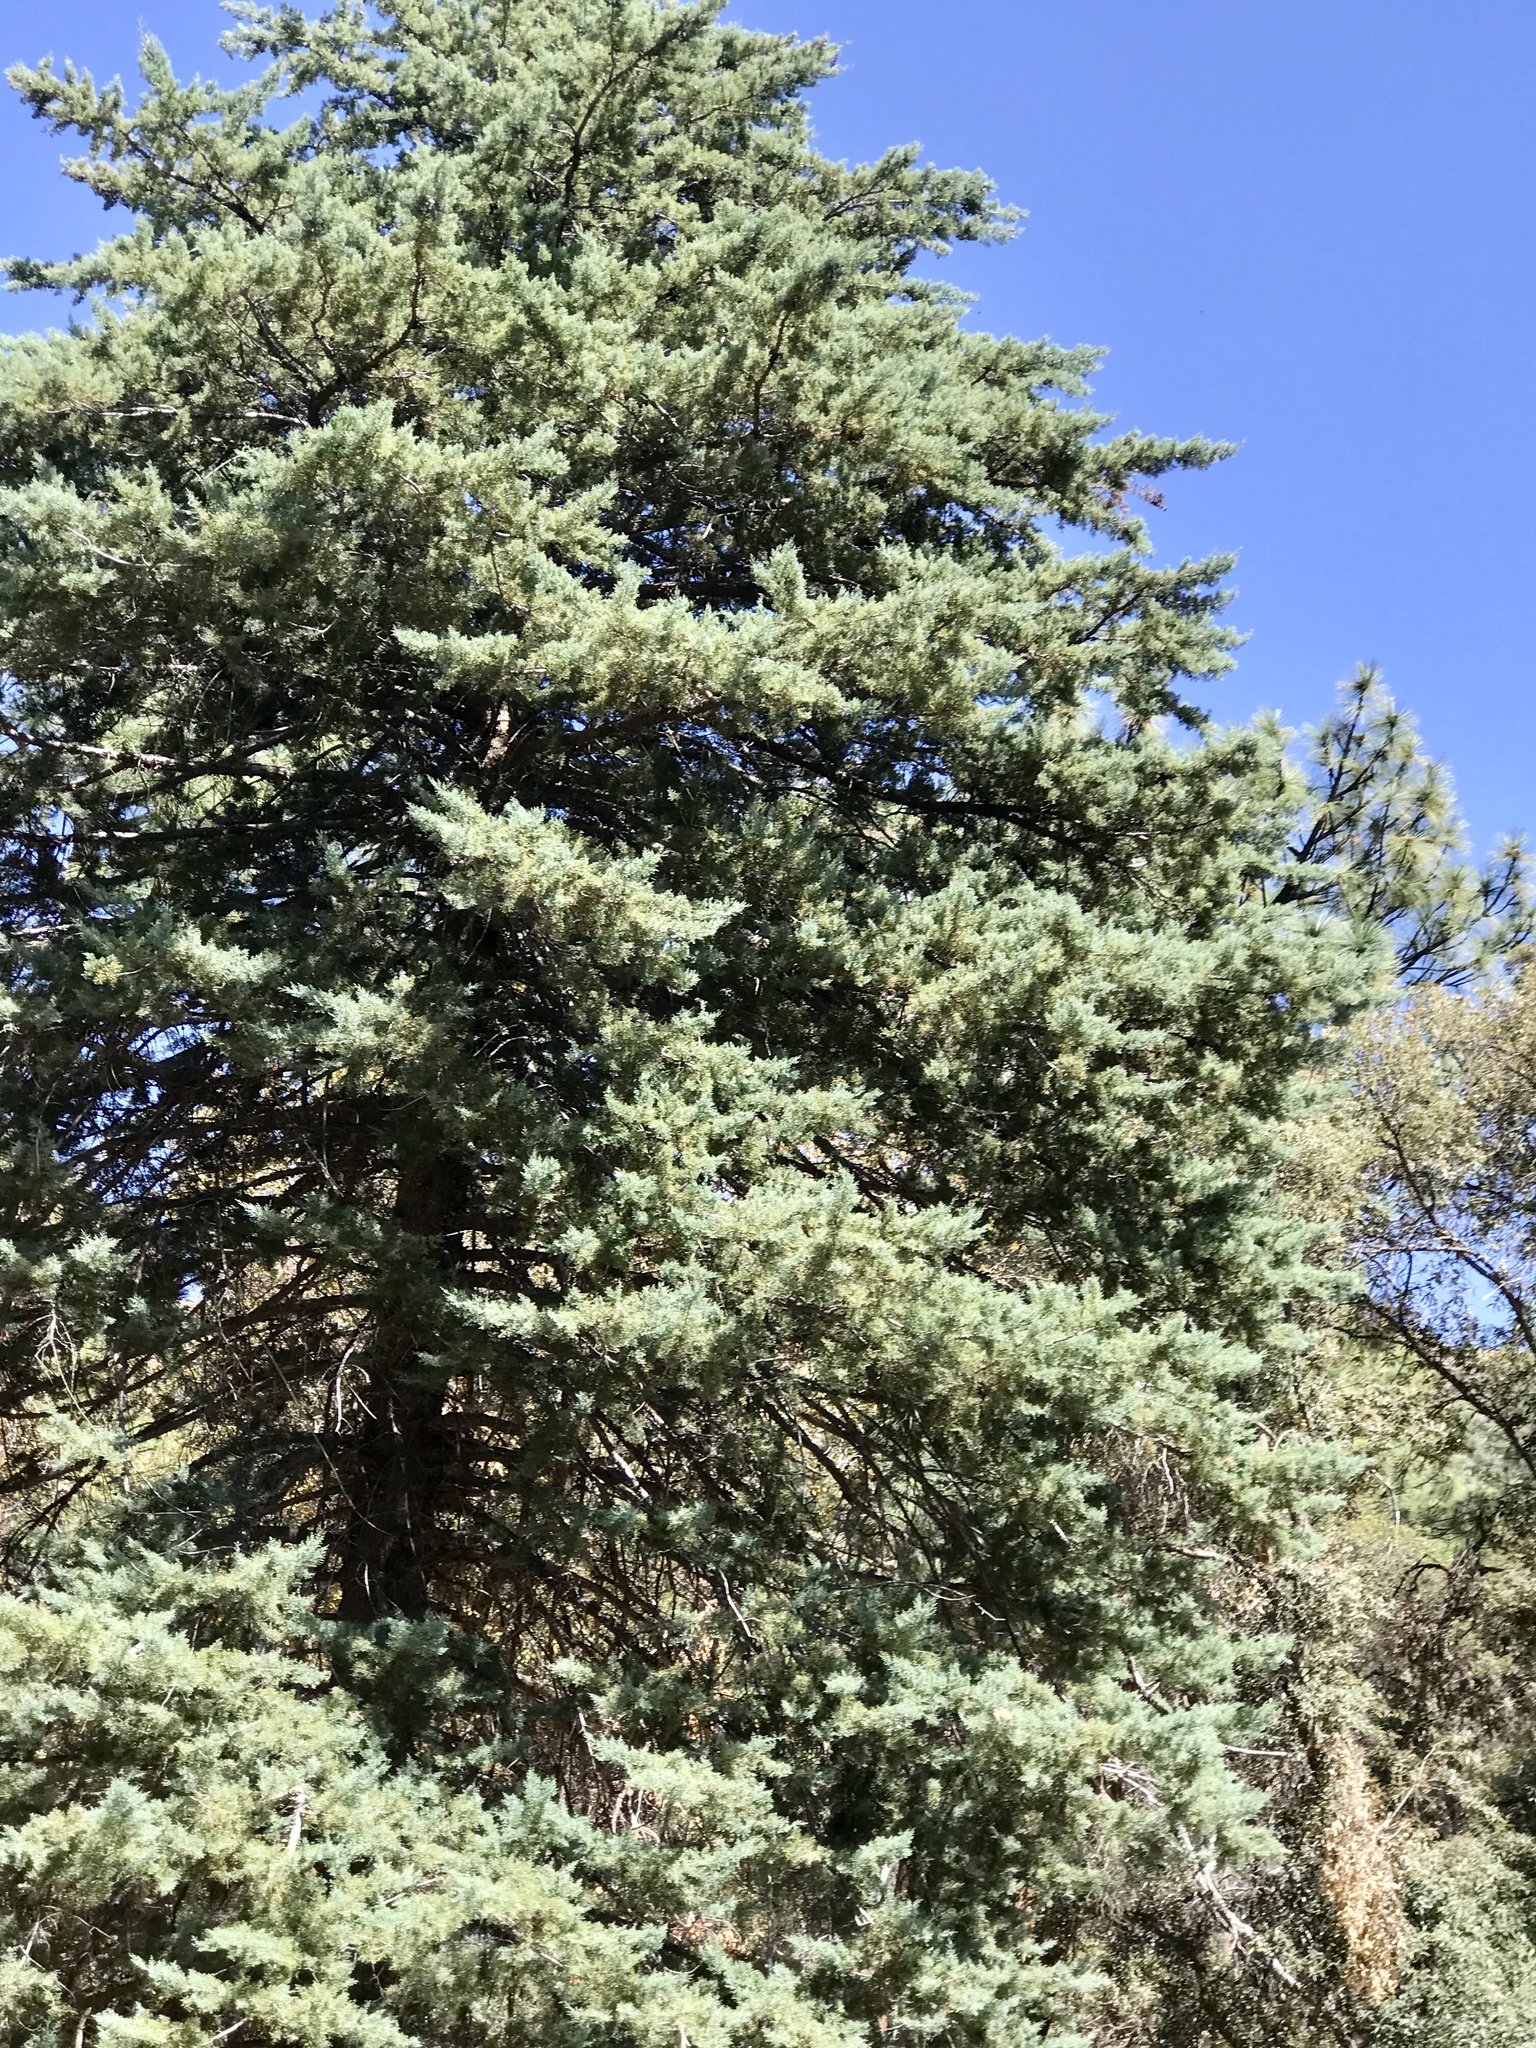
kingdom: Plantae
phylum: Tracheophyta
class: Pinopsida
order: Pinales
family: Cupressaceae
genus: Cupressus
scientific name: Cupressus arizonica
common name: Arizona cypress
